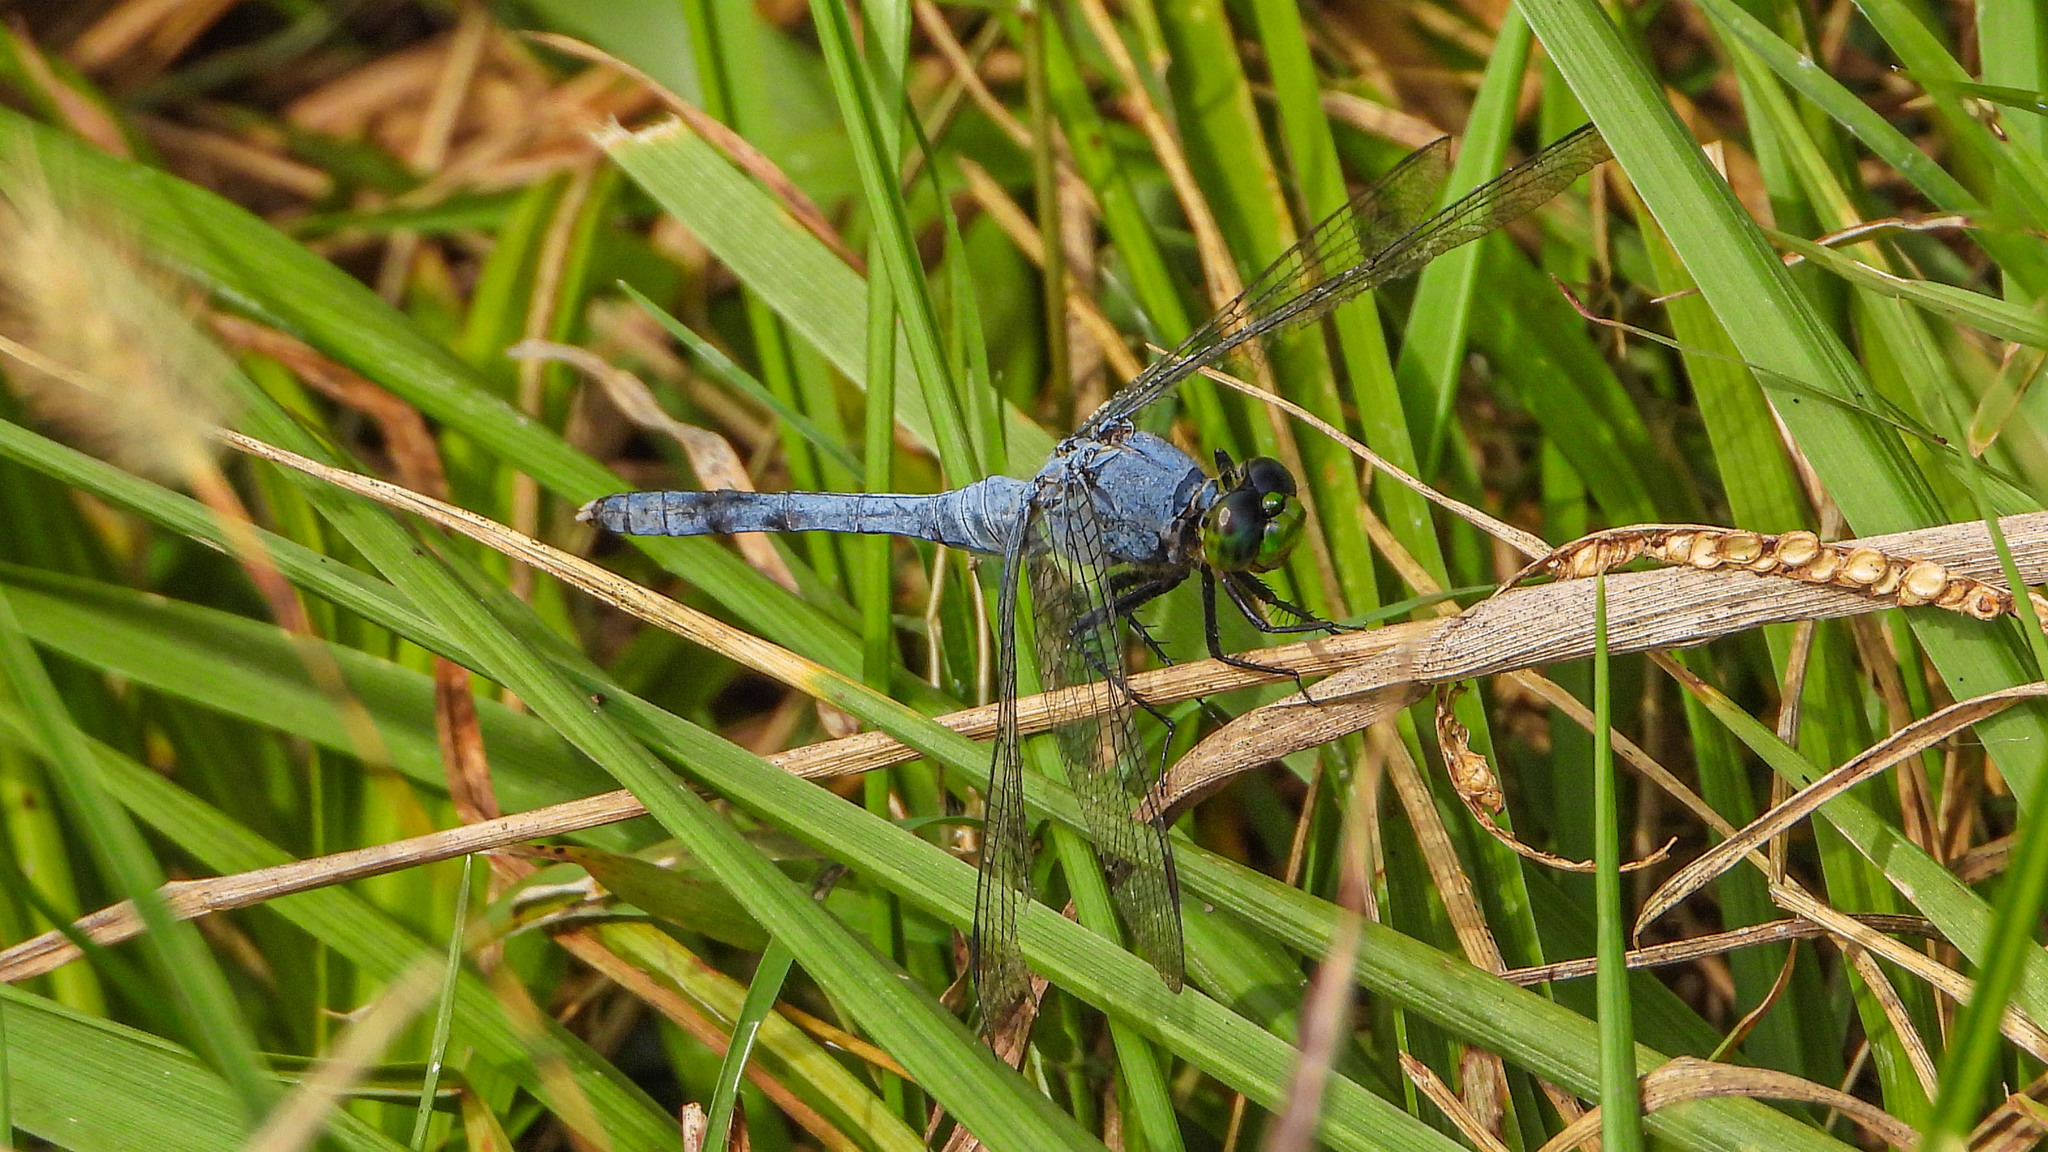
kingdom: Animalia
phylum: Arthropoda
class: Insecta
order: Odonata
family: Libellulidae
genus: Erythemis
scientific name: Erythemis simplicicollis
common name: Eastern pondhawk
